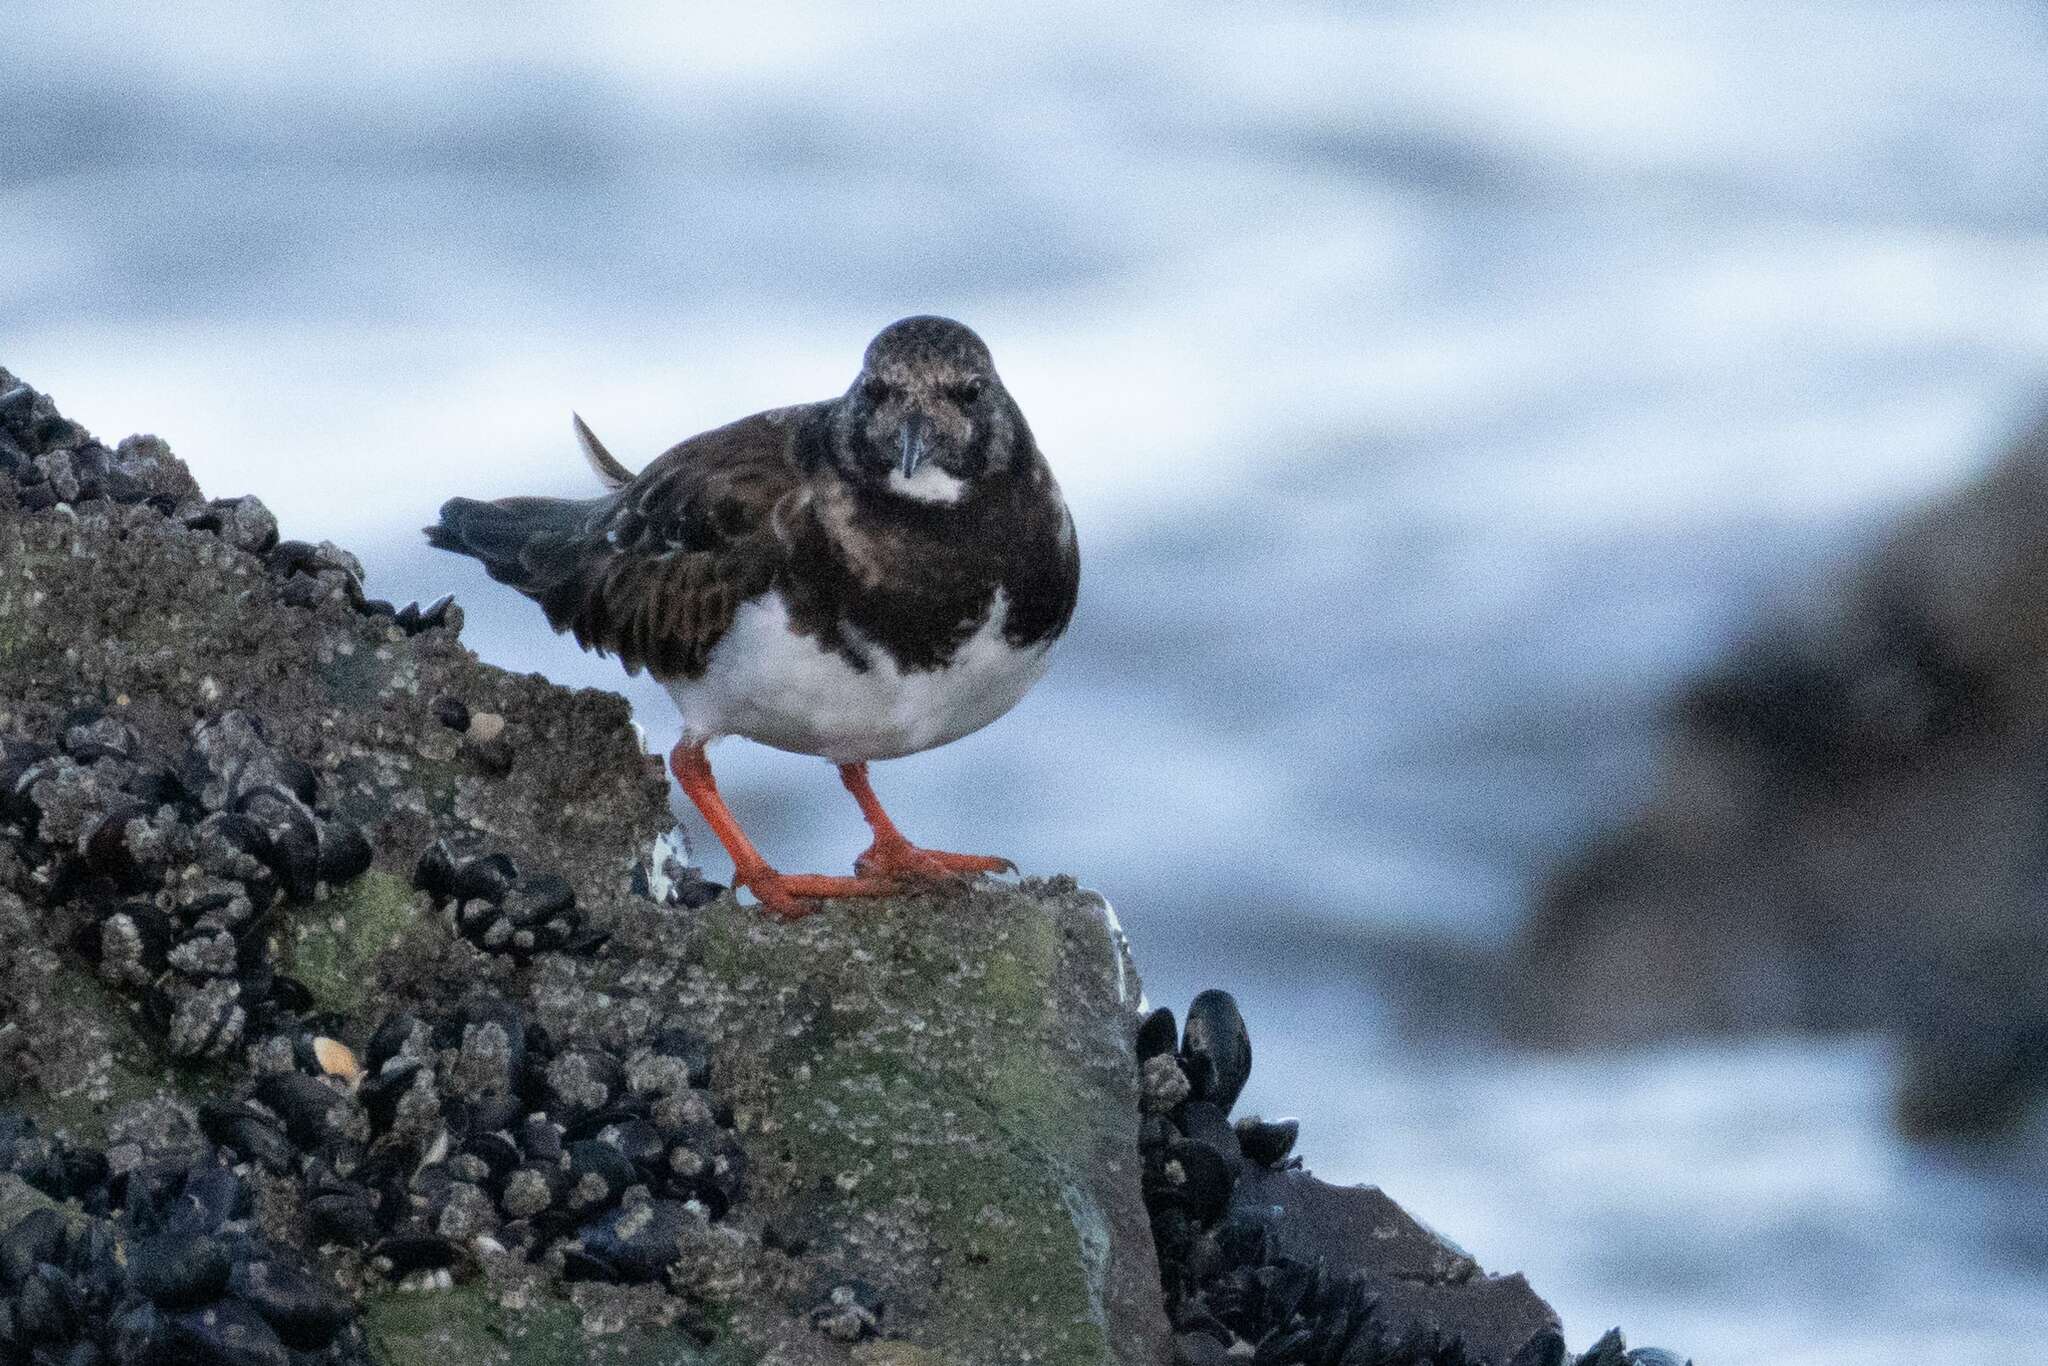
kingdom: Animalia
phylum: Chordata
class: Aves
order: Charadriiformes
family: Scolopacidae
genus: Arenaria
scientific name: Arenaria interpres
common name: Ruddy turnstone
